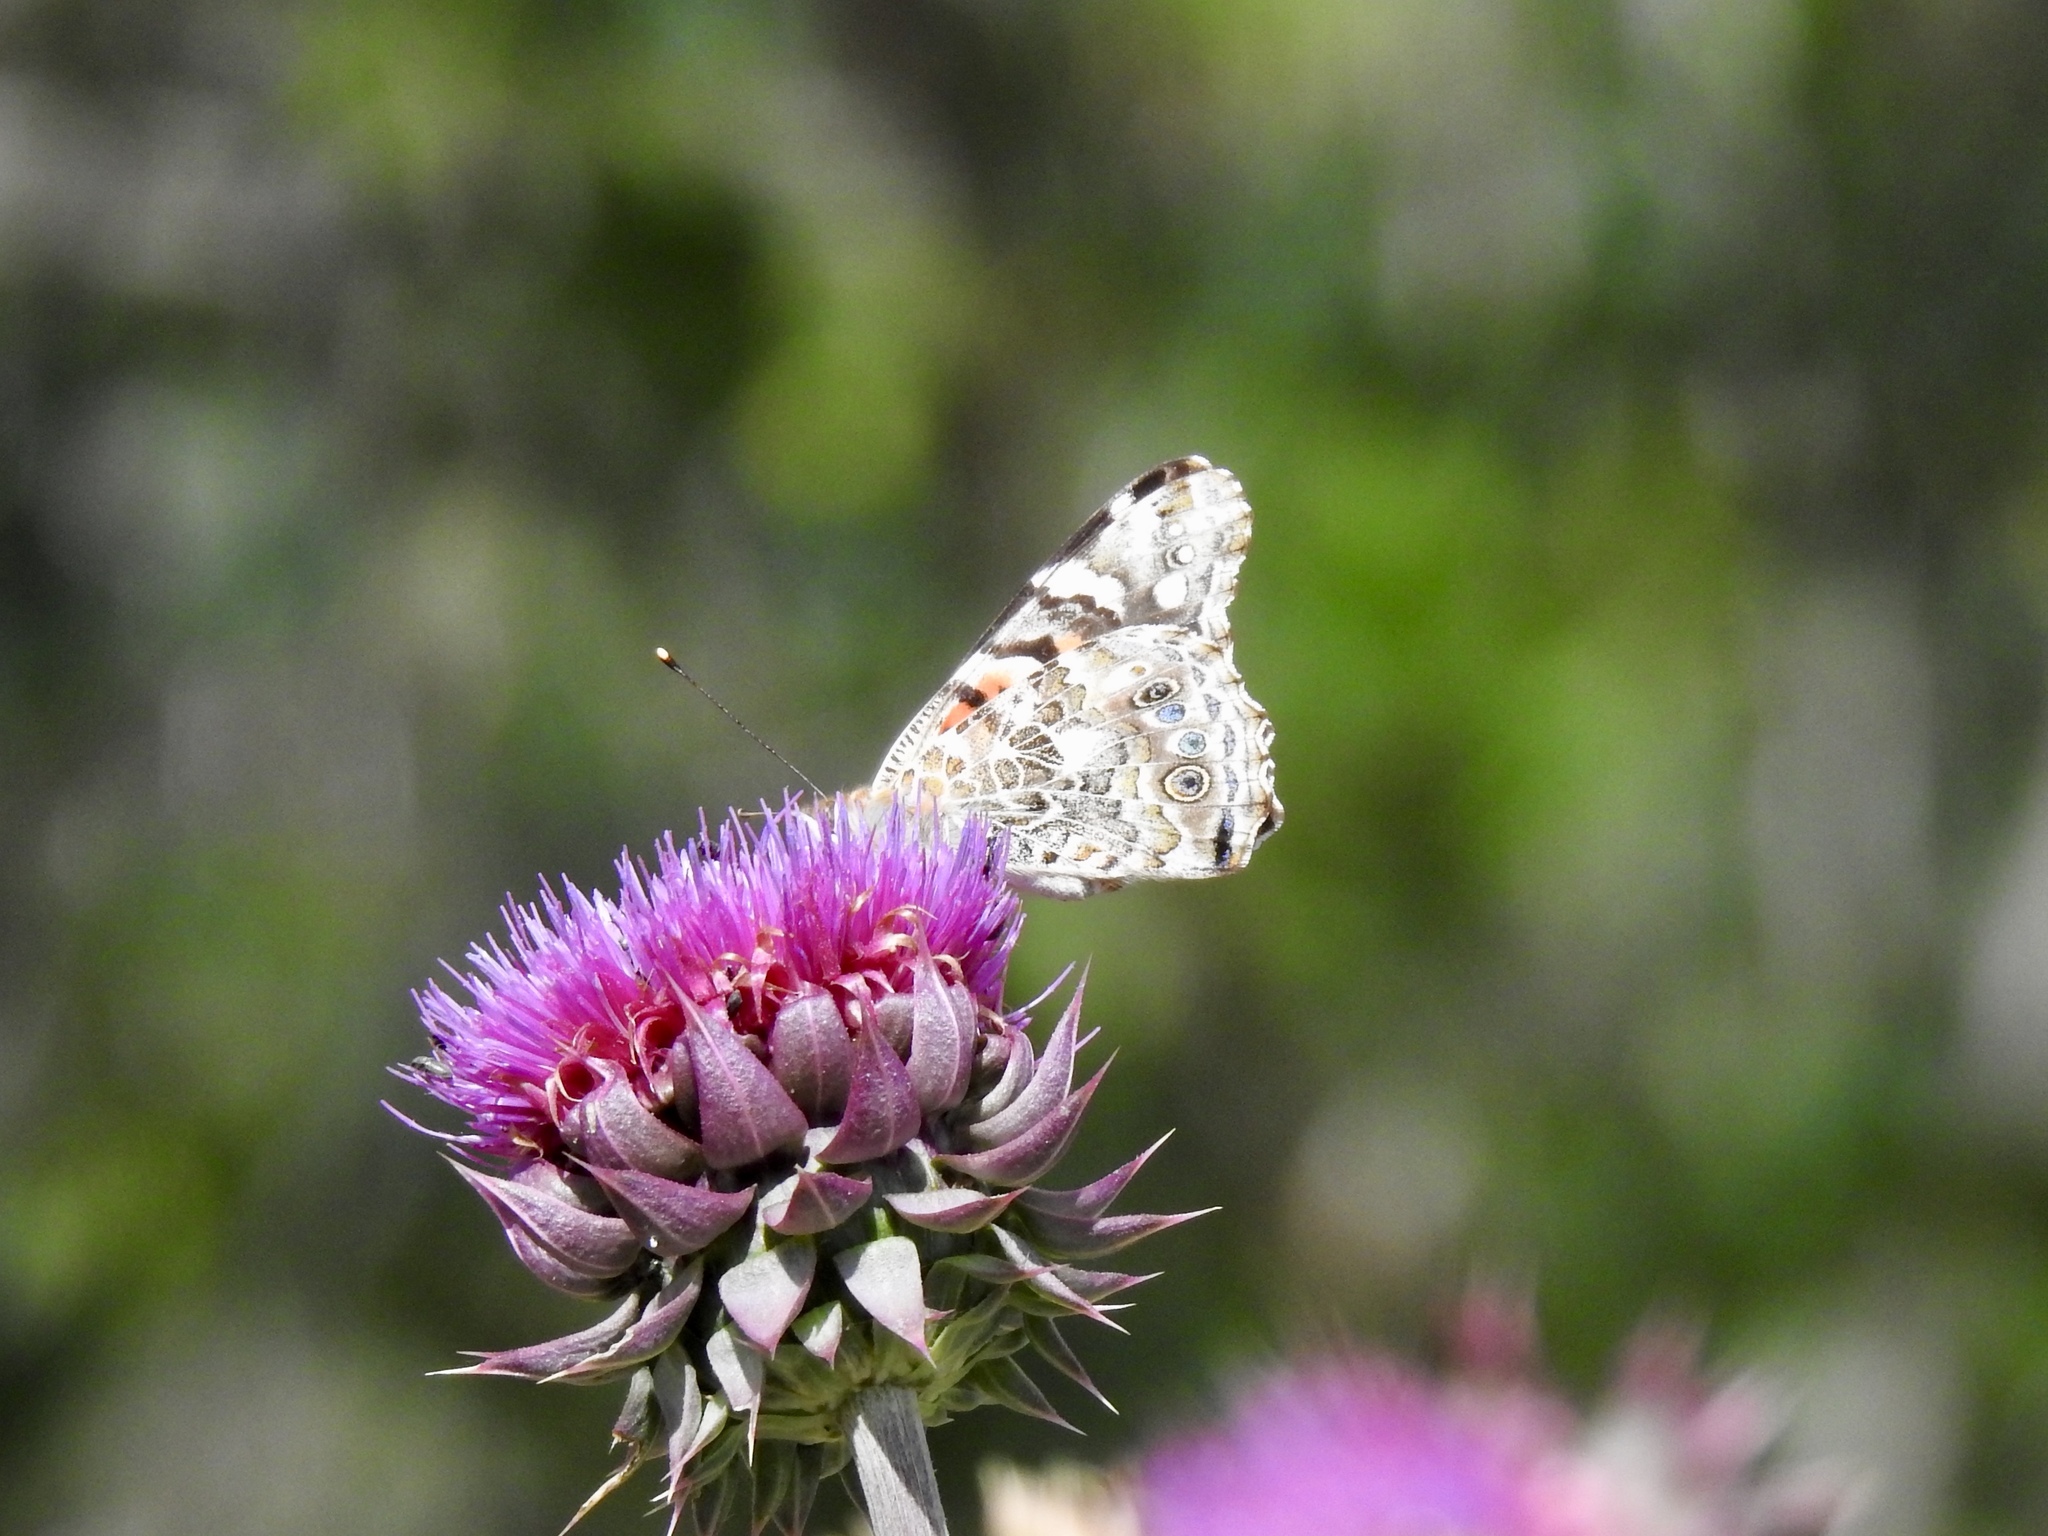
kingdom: Animalia
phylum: Arthropoda
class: Insecta
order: Lepidoptera
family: Nymphalidae
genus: Vanessa
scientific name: Vanessa cardui
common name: Painted lady
